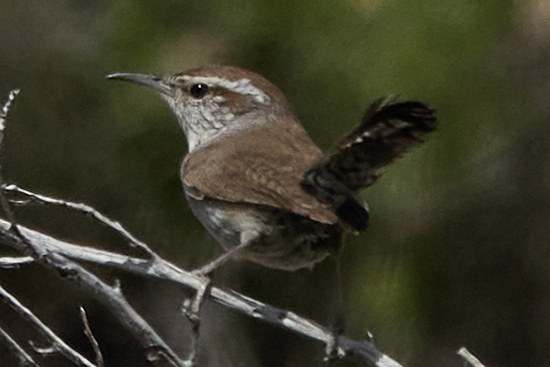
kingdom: Animalia
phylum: Chordata
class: Aves
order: Passeriformes
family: Troglodytidae
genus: Thryomanes
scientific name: Thryomanes bewickii
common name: Bewick's wren
